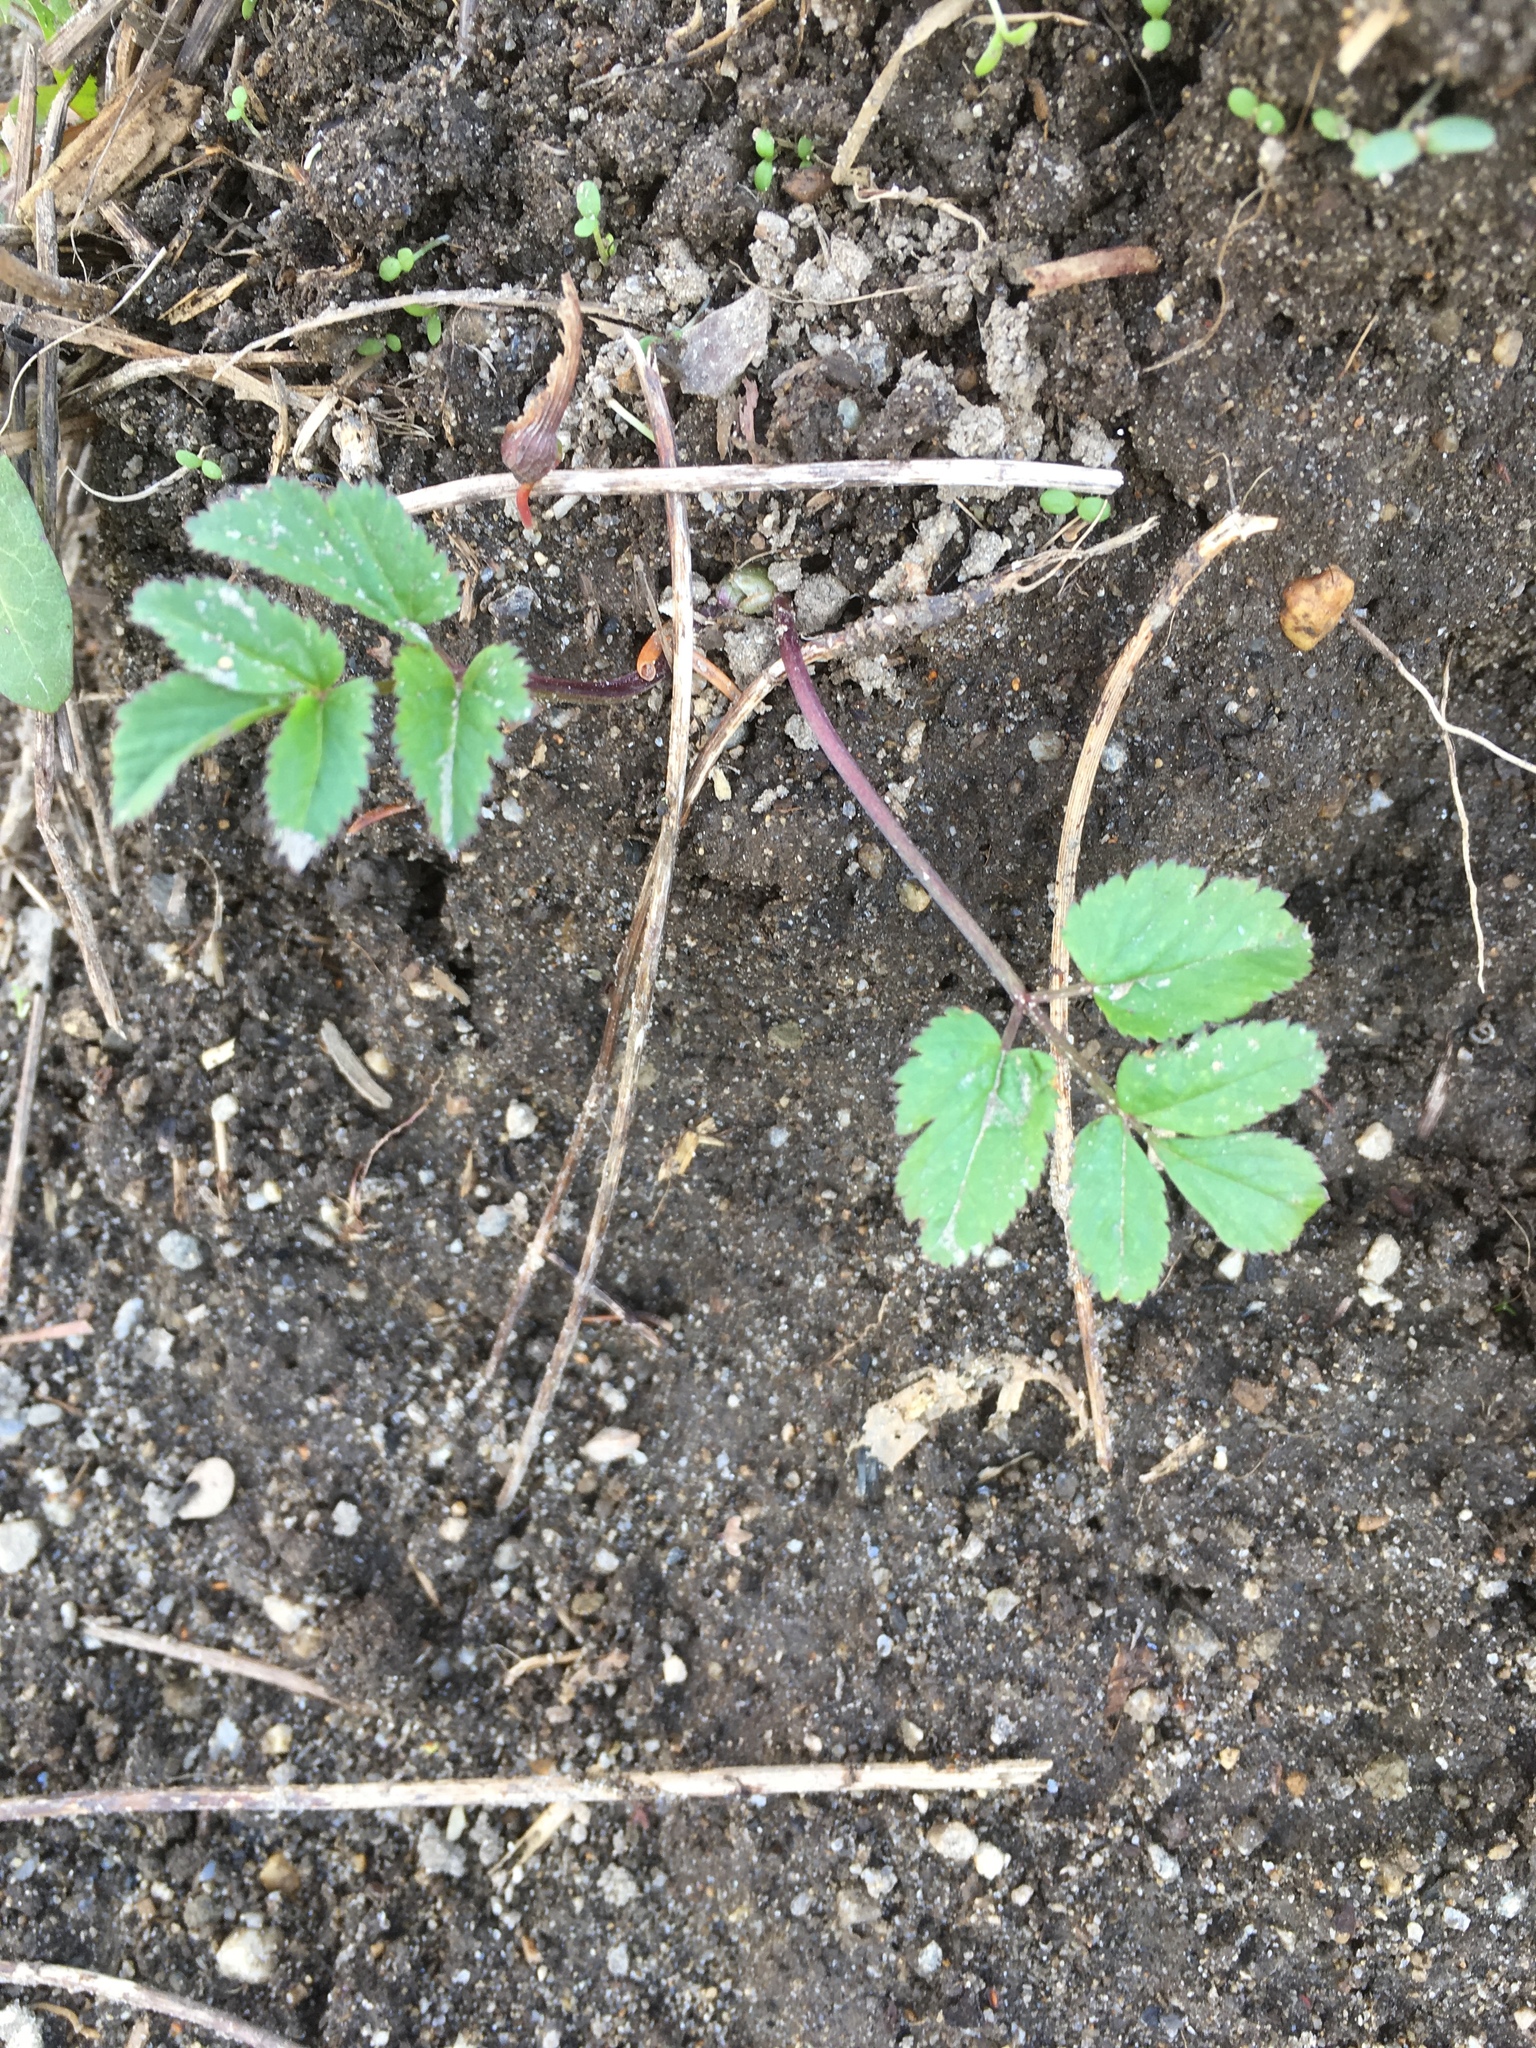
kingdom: Plantae
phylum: Tracheophyta
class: Magnoliopsida
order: Apiales
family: Apiaceae
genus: Aegopodium
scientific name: Aegopodium podagraria
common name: Ground-elder
